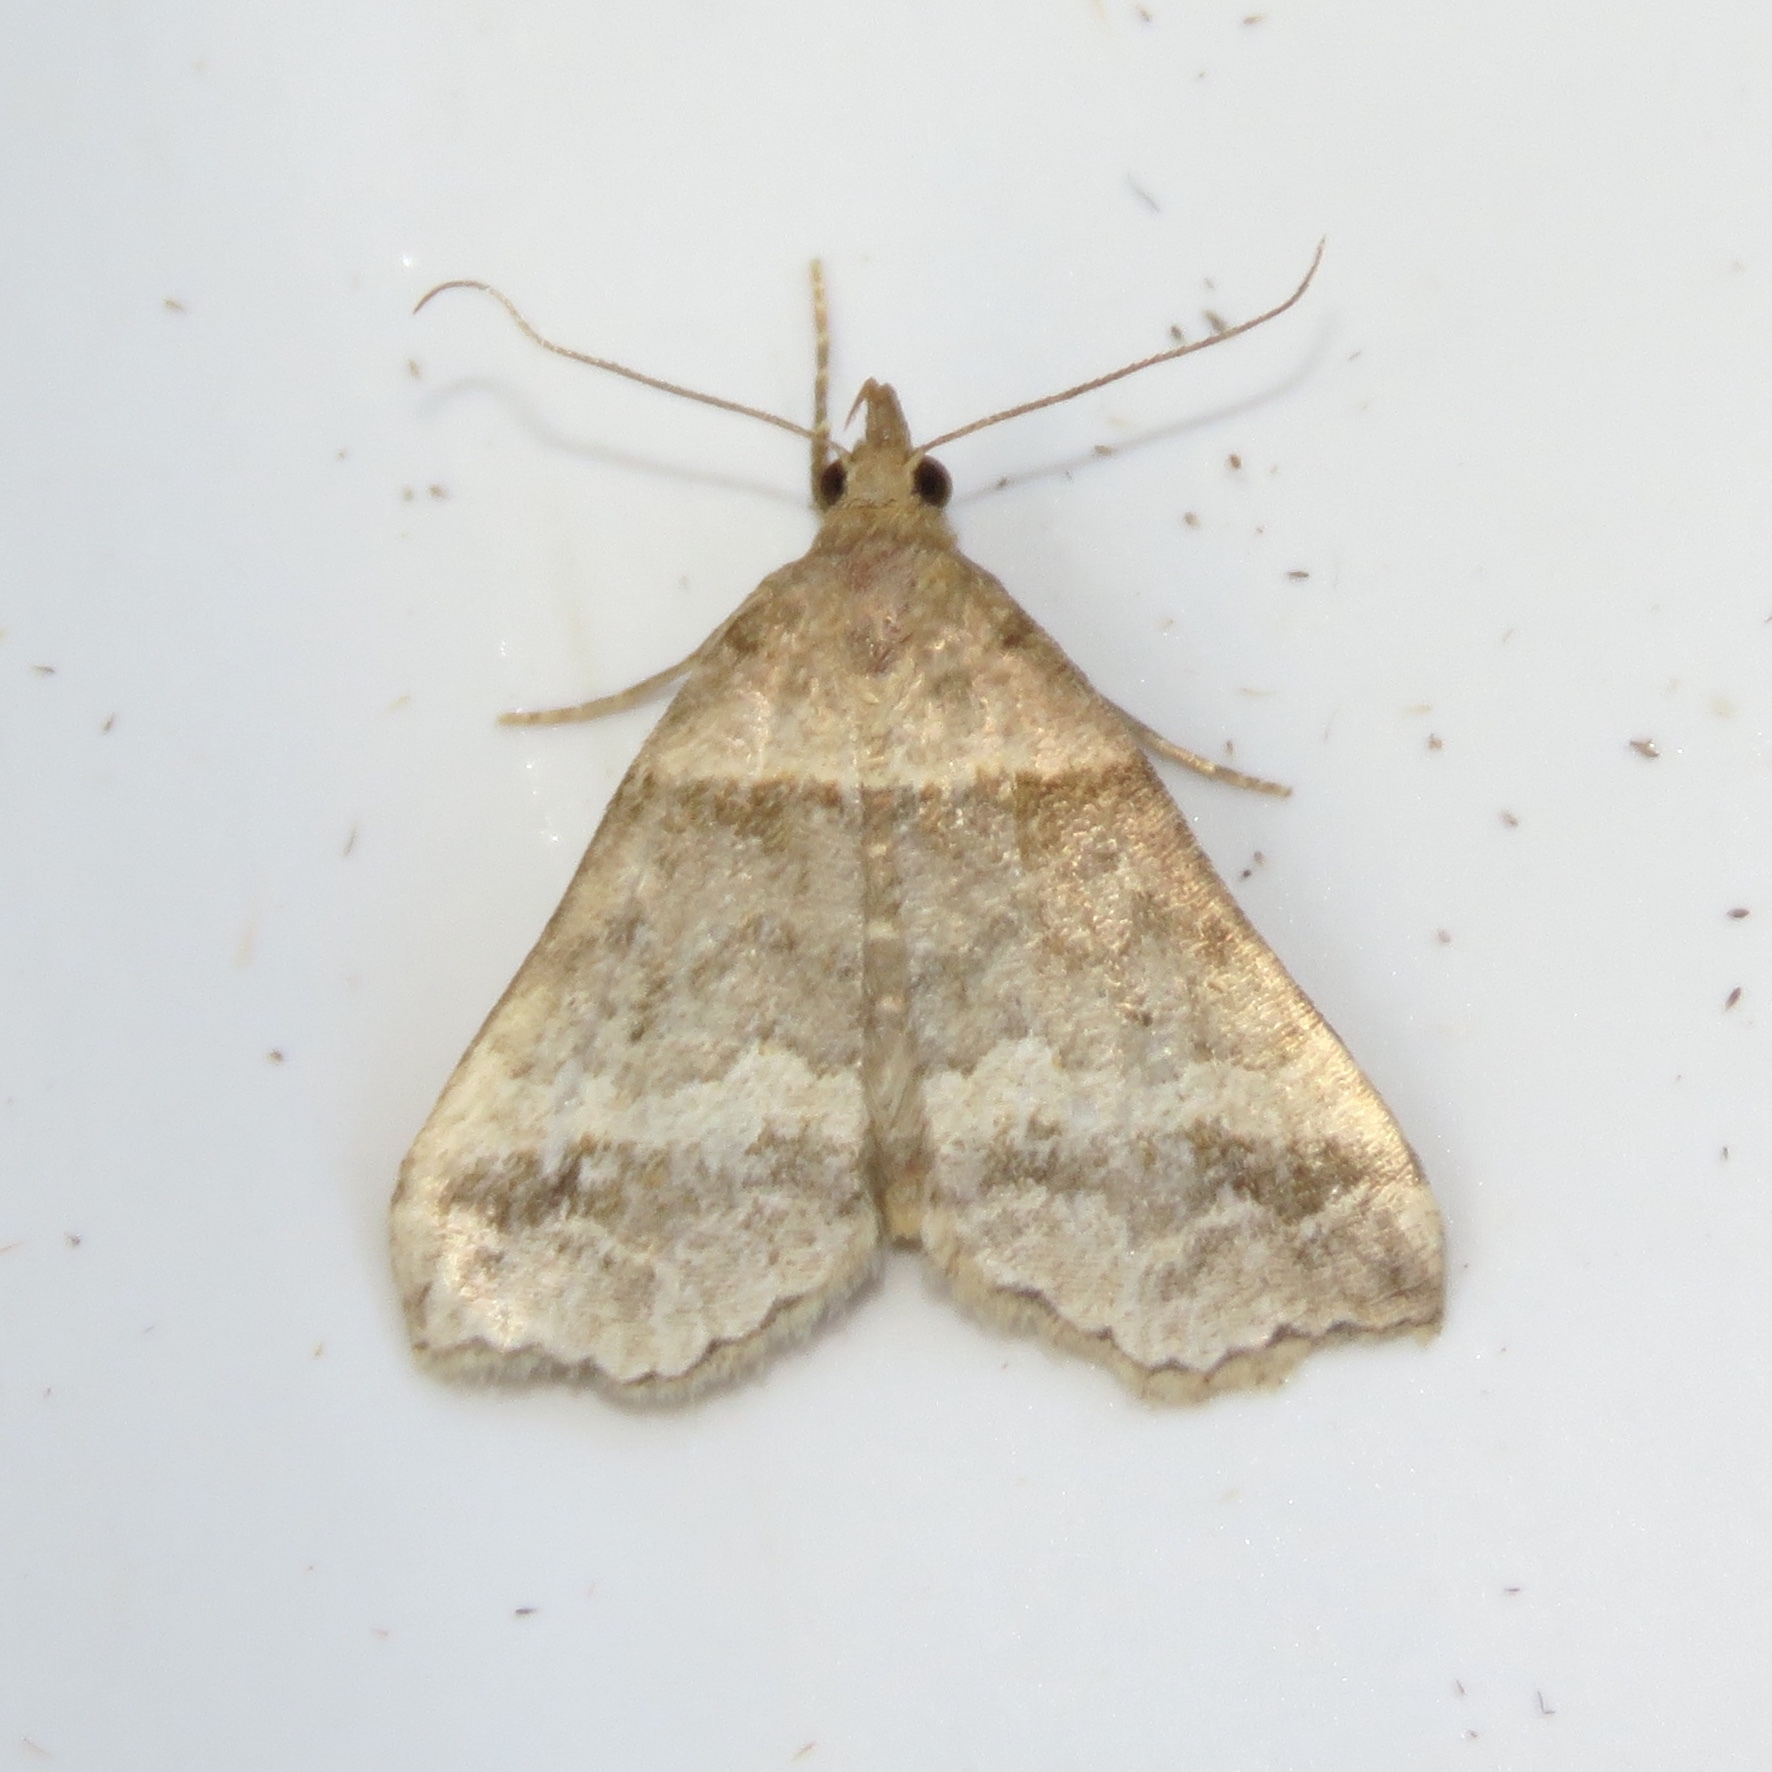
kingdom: Animalia
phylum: Arthropoda
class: Insecta
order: Lepidoptera
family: Erebidae
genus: Phaeolita
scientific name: Phaeolita pyramusalis
